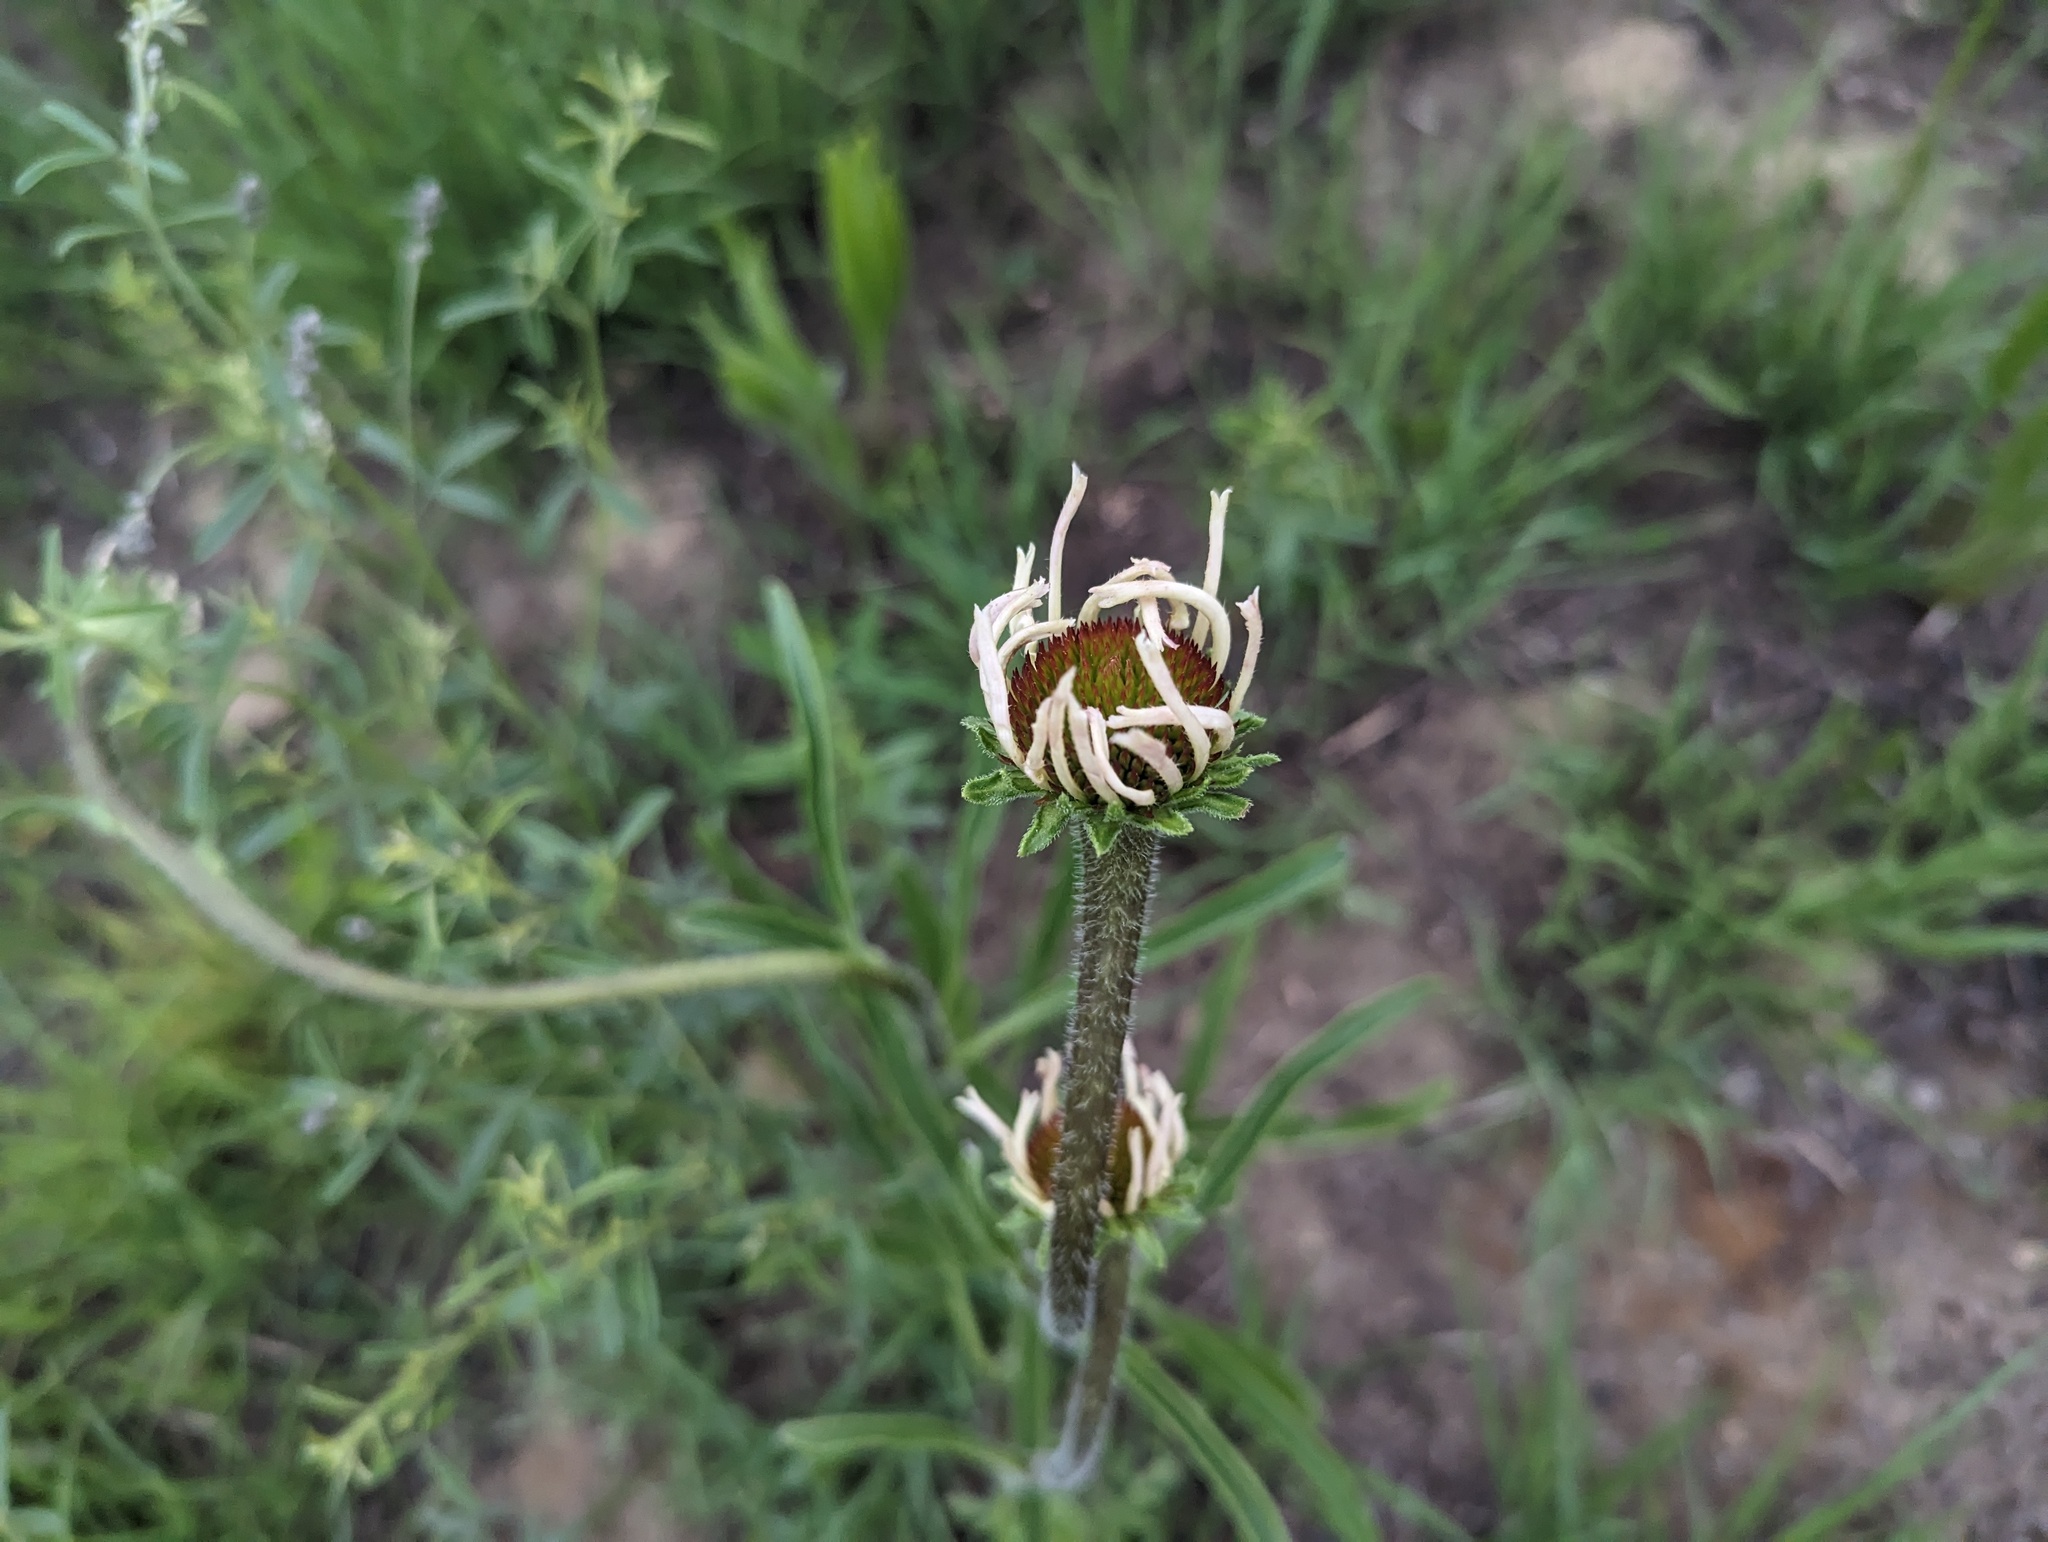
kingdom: Plantae
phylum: Tracheophyta
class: Magnoliopsida
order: Asterales
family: Asteraceae
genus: Echinacea
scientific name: Echinacea pallida
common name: Pale echinacea
